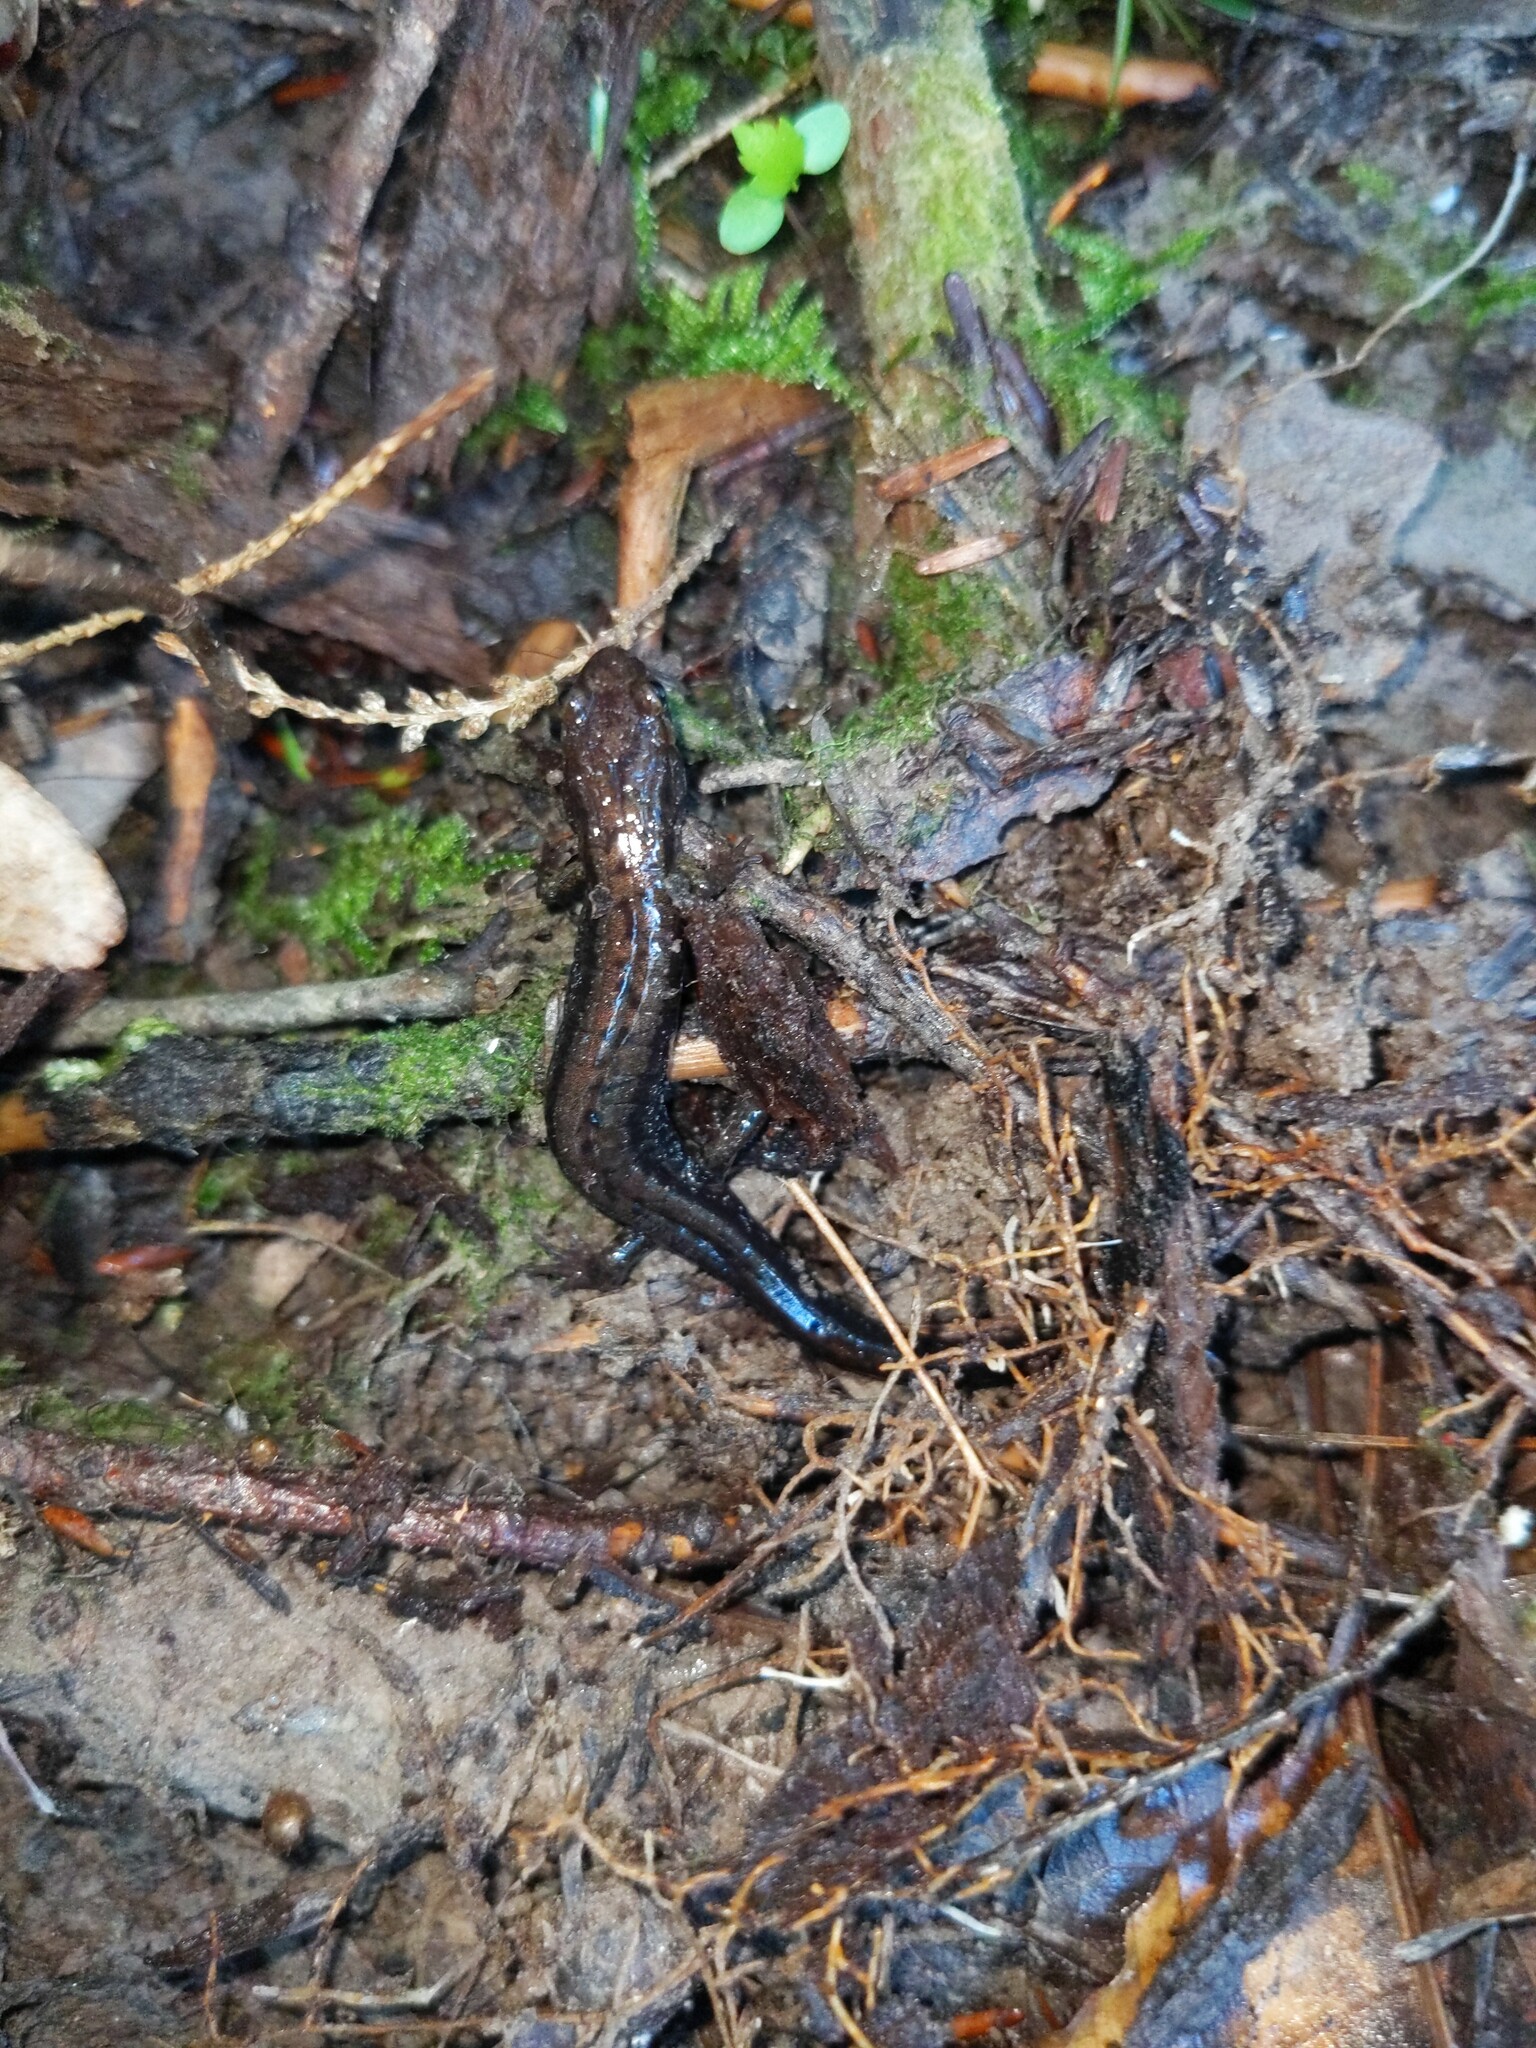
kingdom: Animalia
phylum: Chordata
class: Amphibia
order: Caudata
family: Plethodontidae
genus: Desmognathus
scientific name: Desmognathus ochrophaeus
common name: Allegheny mountain dusky salamander
